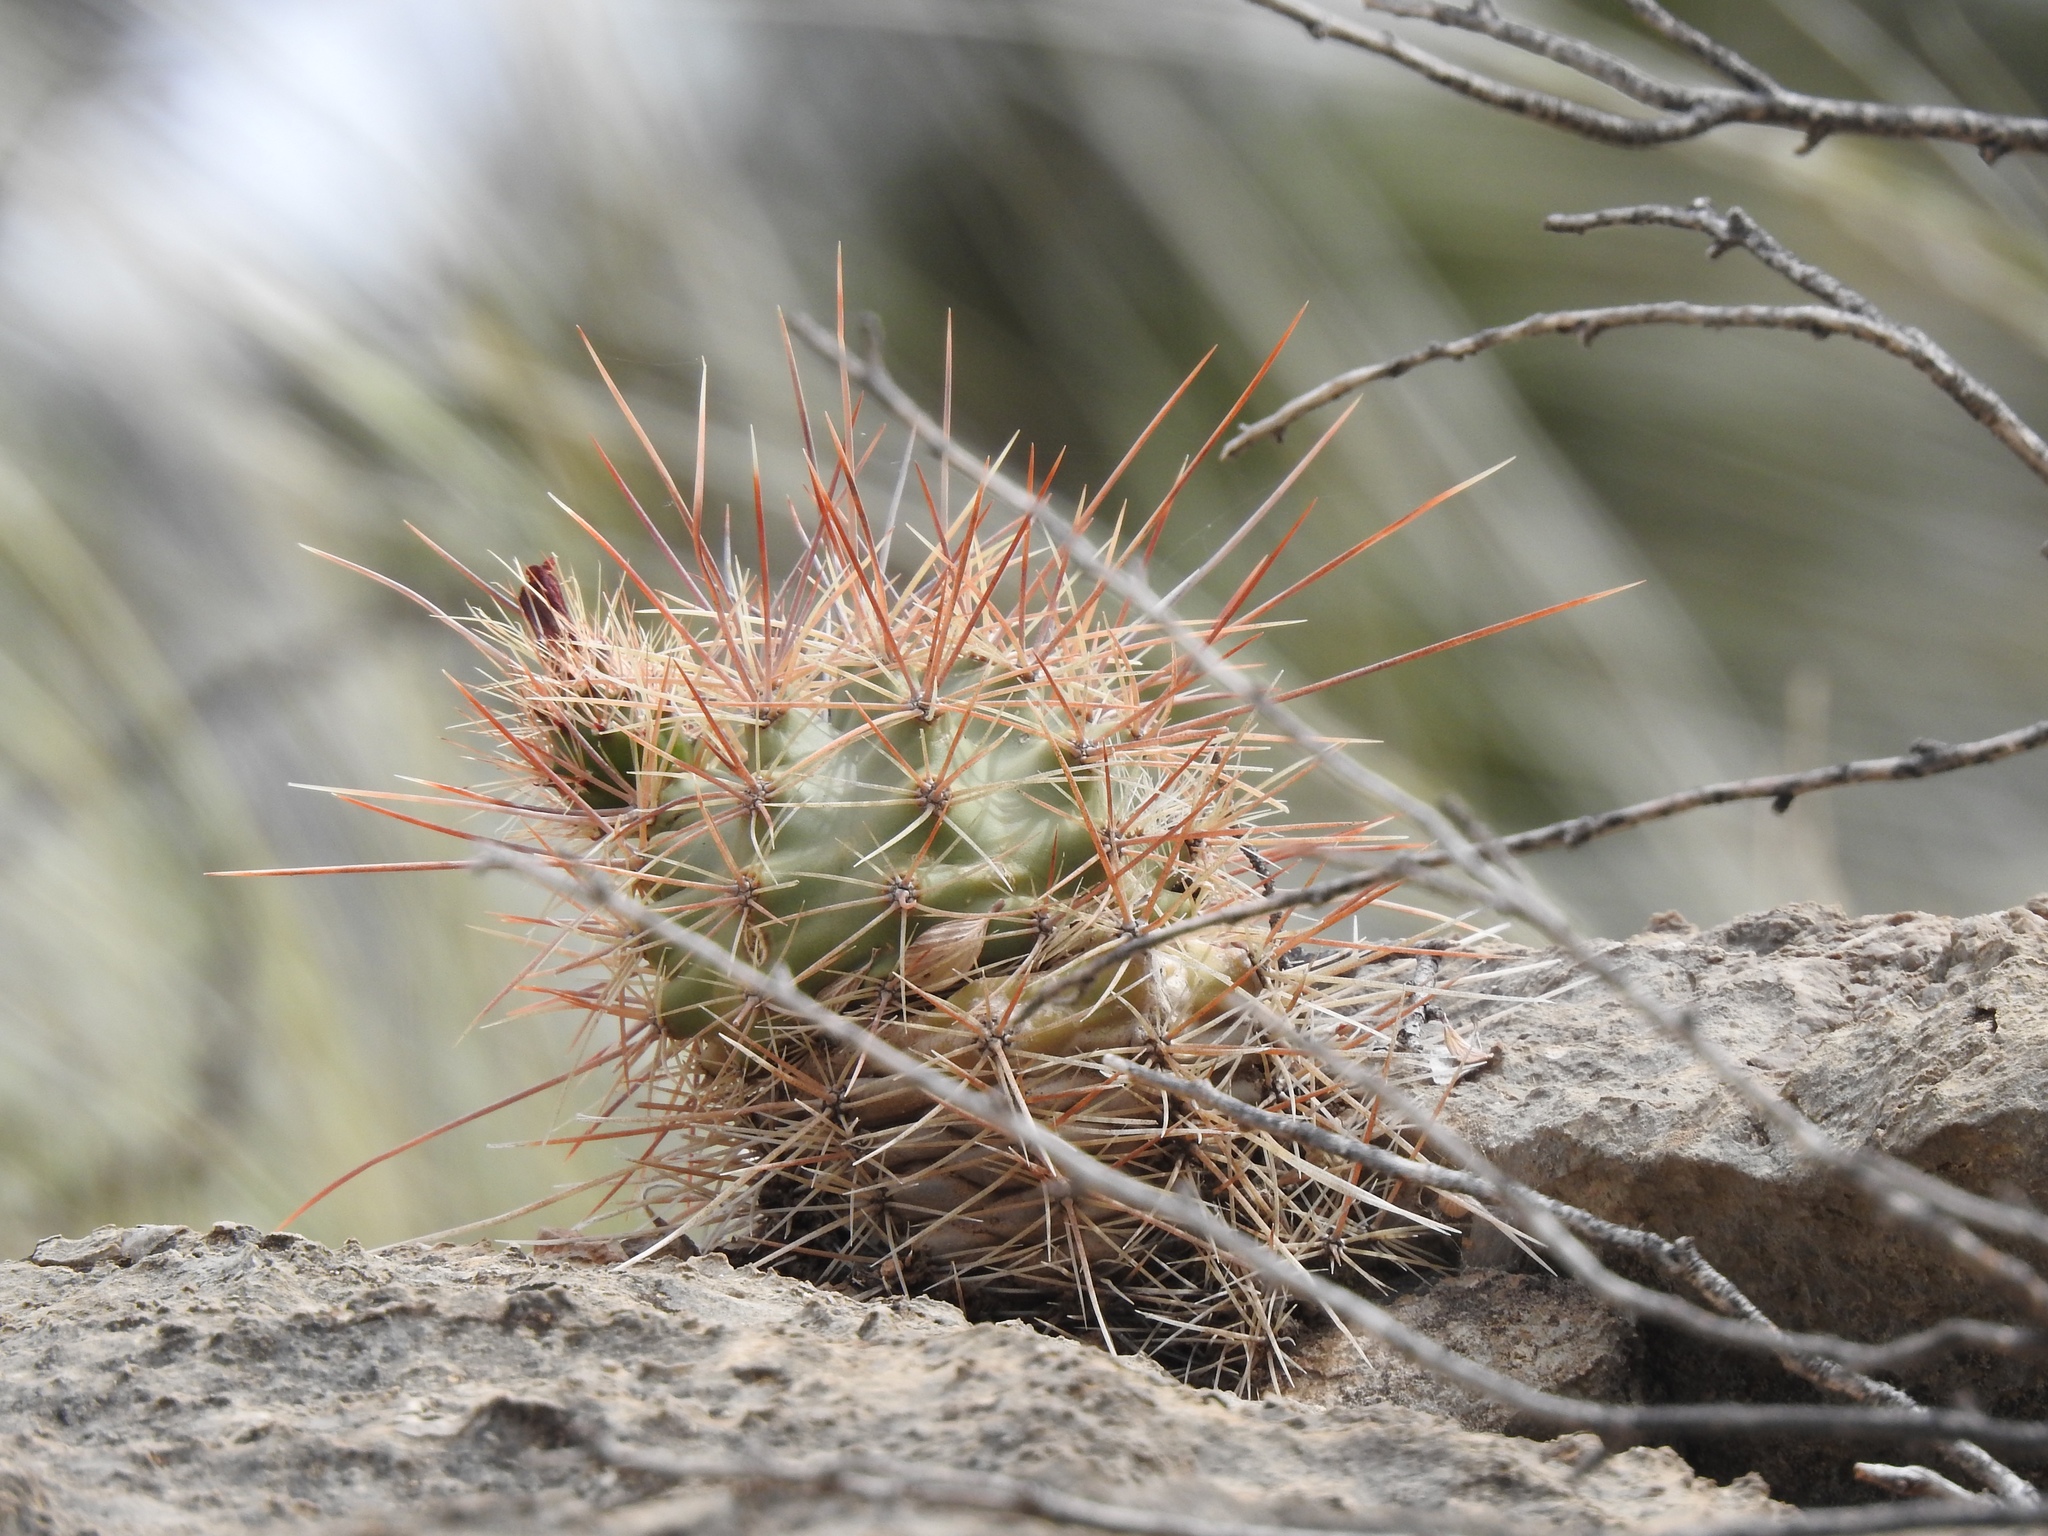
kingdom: Plantae
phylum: Tracheophyta
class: Magnoliopsida
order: Caryophyllales
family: Cactaceae
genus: Echinocereus
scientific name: Echinocereus coccineus
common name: Scarlet hedgehog cactus
